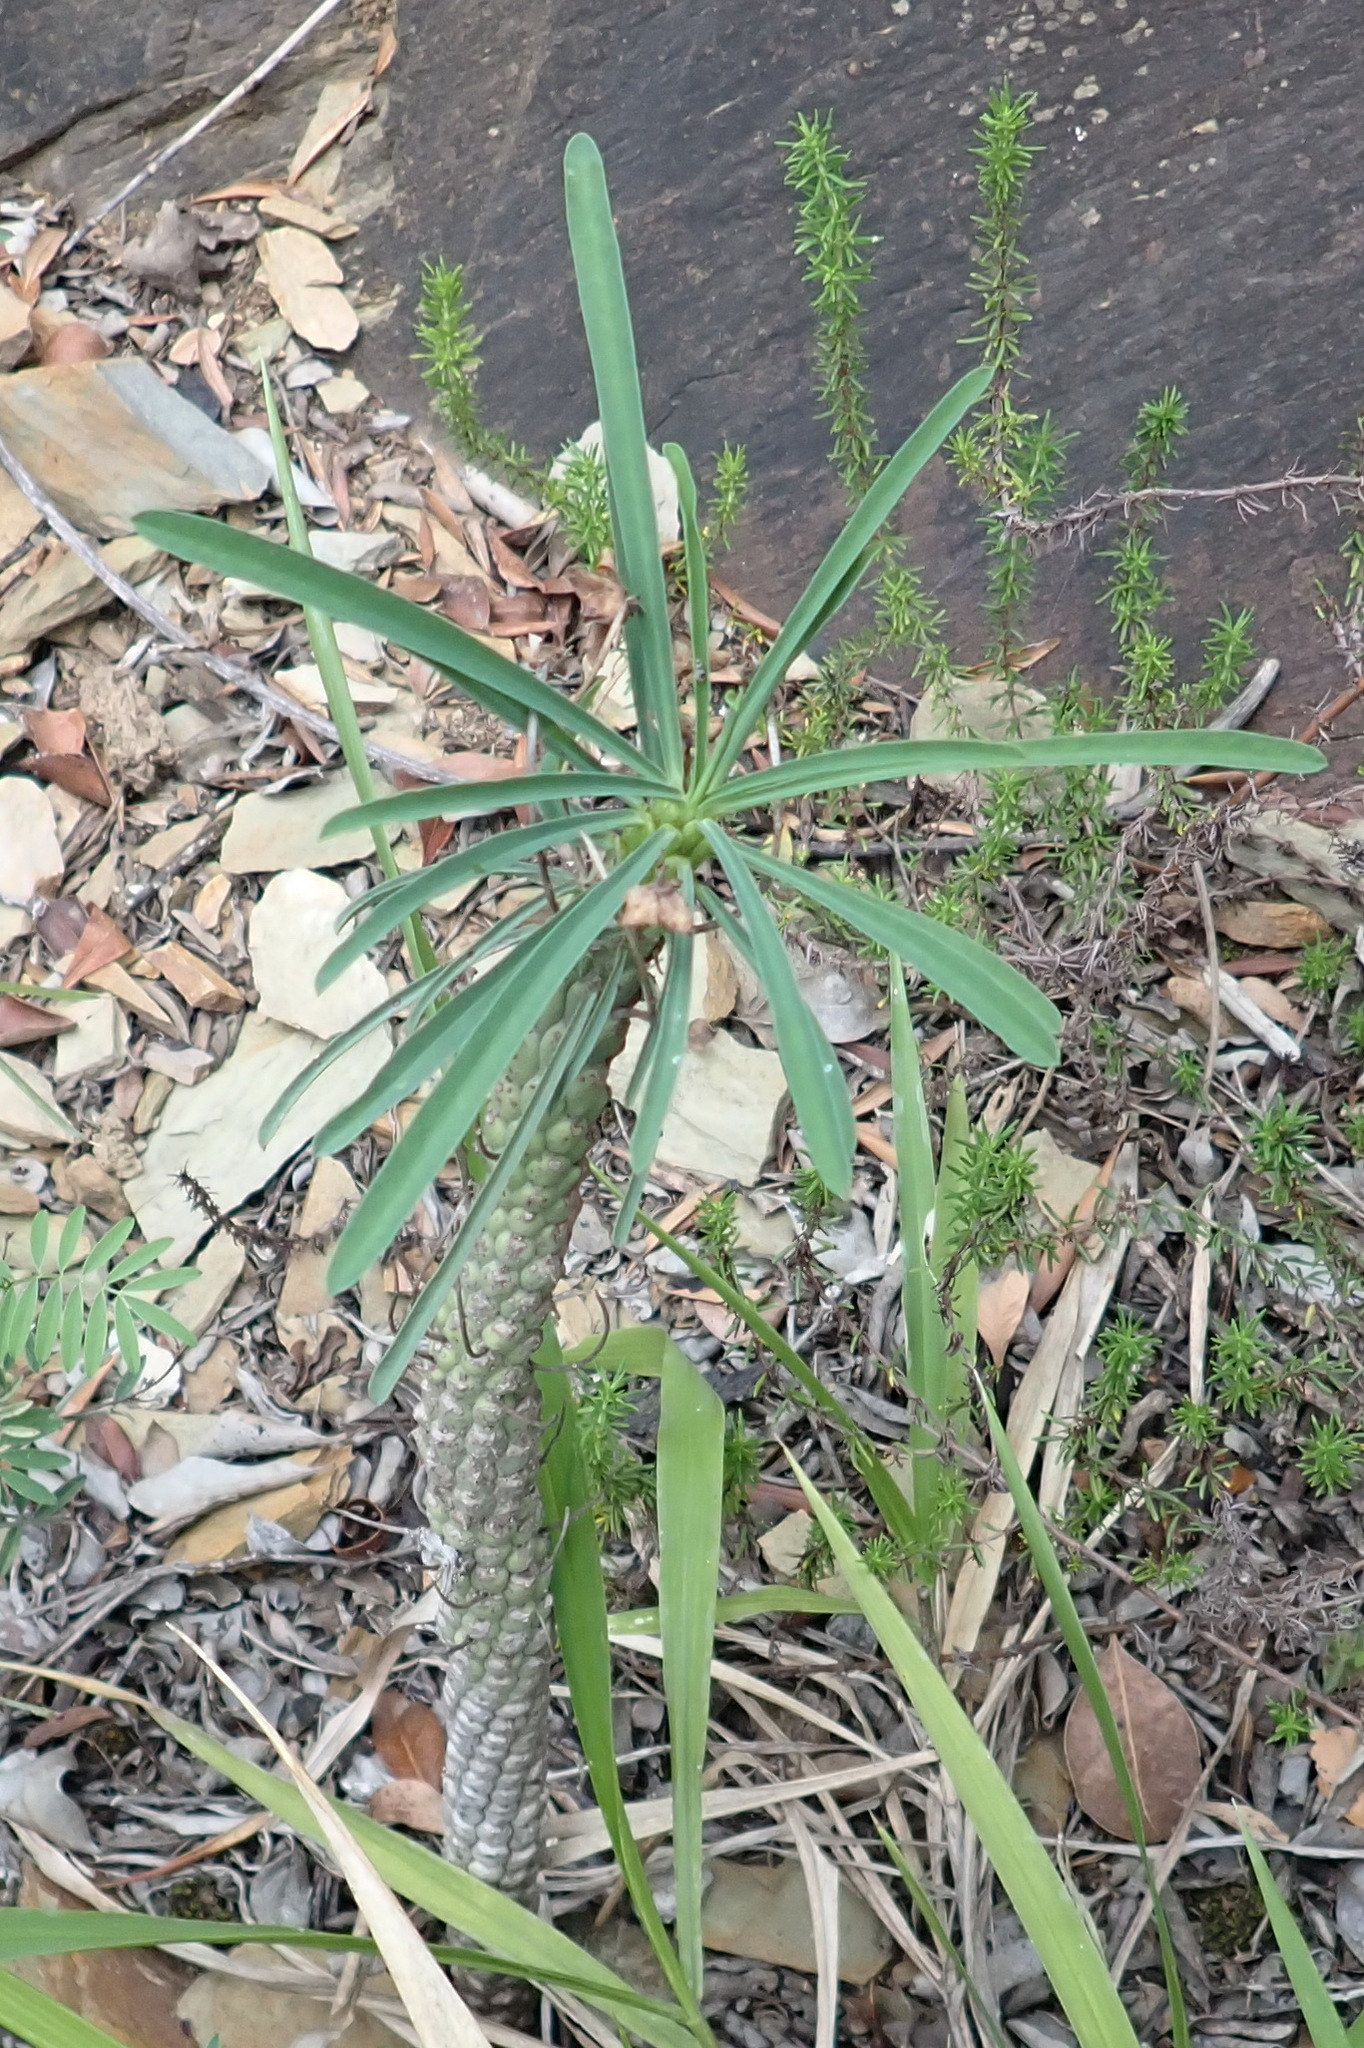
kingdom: Plantae
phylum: Tracheophyta
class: Magnoliopsida
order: Malpighiales
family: Euphorbiaceae
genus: Euphorbia
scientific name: Euphorbia clava
